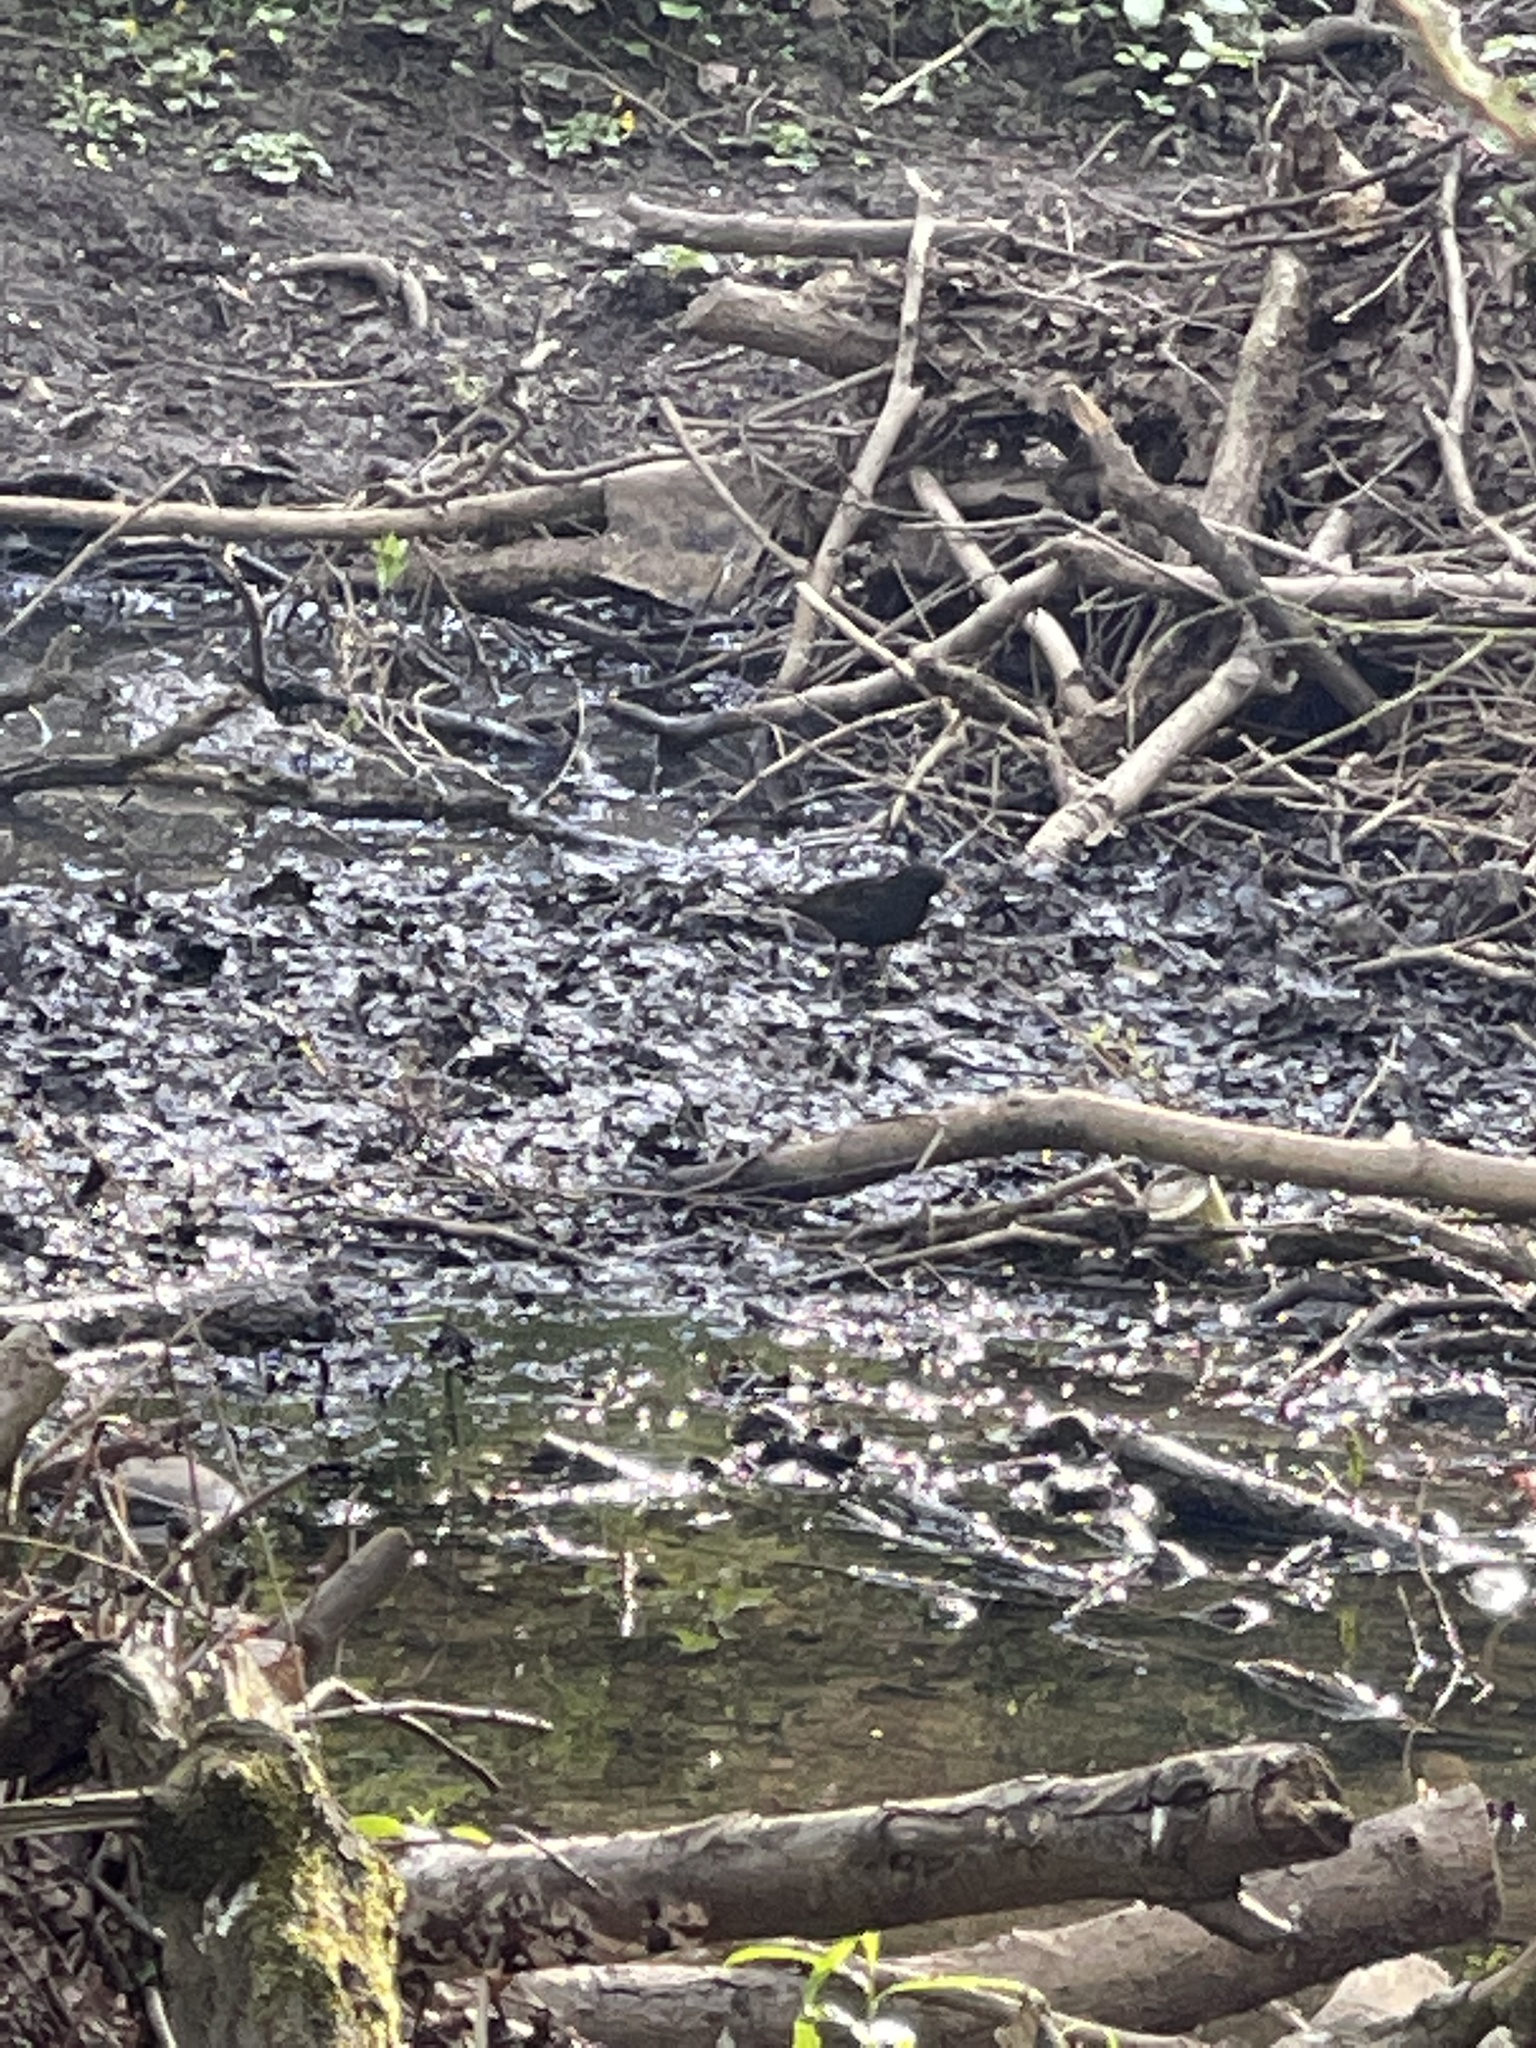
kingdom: Animalia
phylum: Chordata
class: Aves
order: Passeriformes
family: Turdidae
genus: Turdus
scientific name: Turdus merula
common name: Common blackbird
